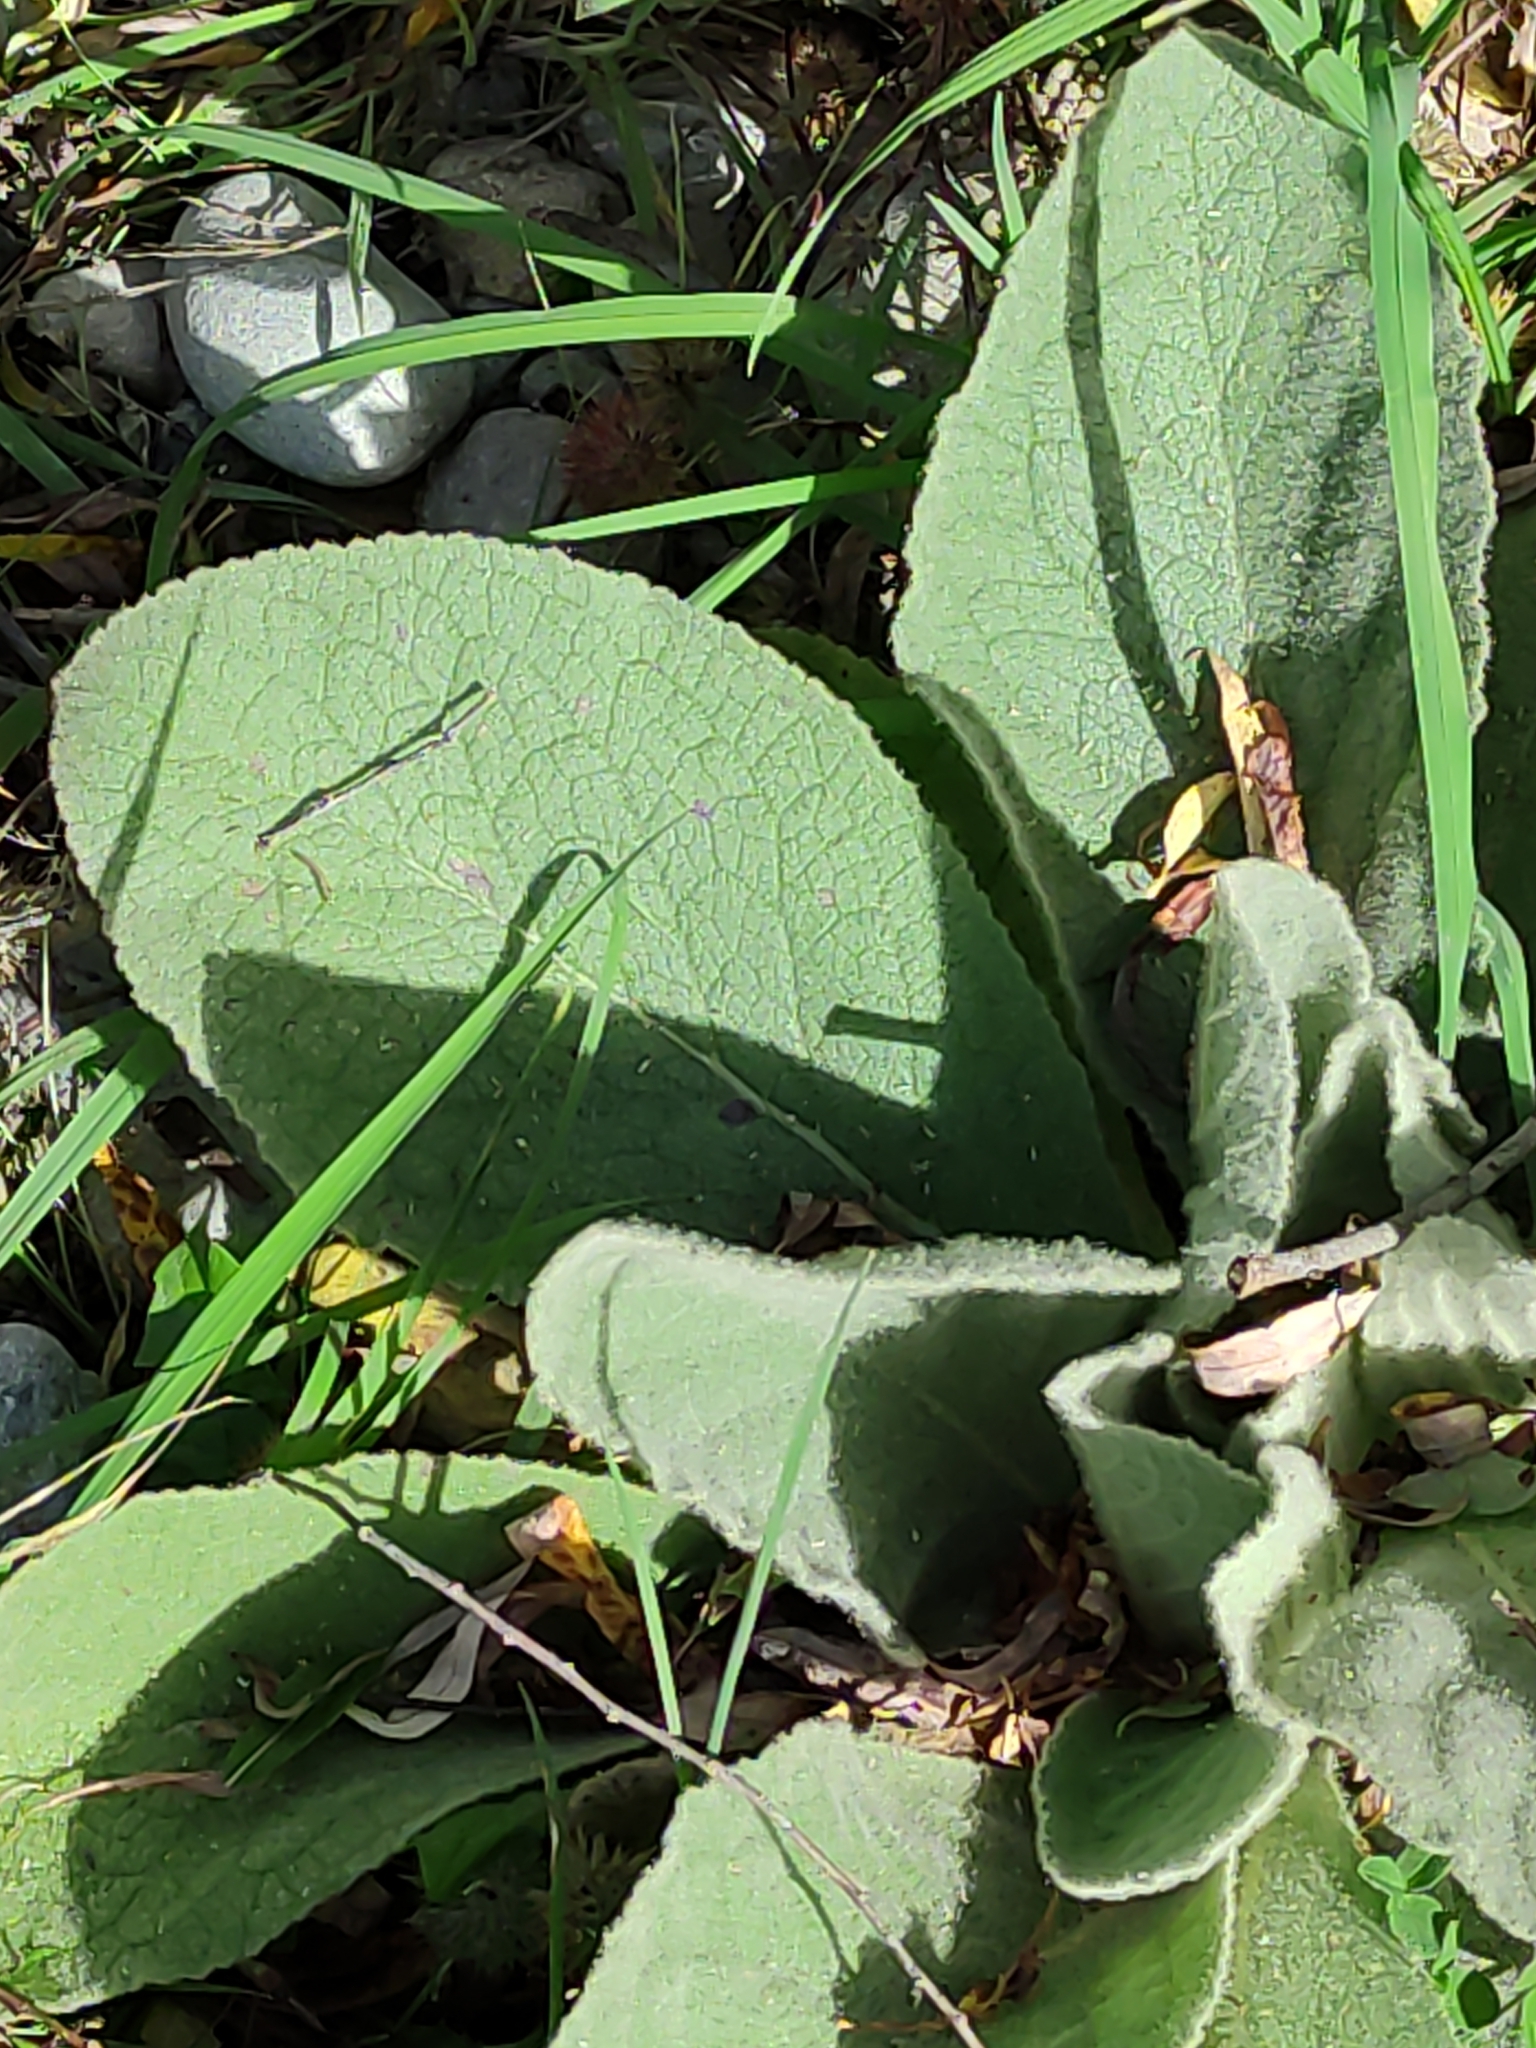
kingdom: Plantae
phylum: Tracheophyta
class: Magnoliopsida
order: Lamiales
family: Scrophulariaceae
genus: Verbascum
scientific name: Verbascum thapsus
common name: Common mullein
